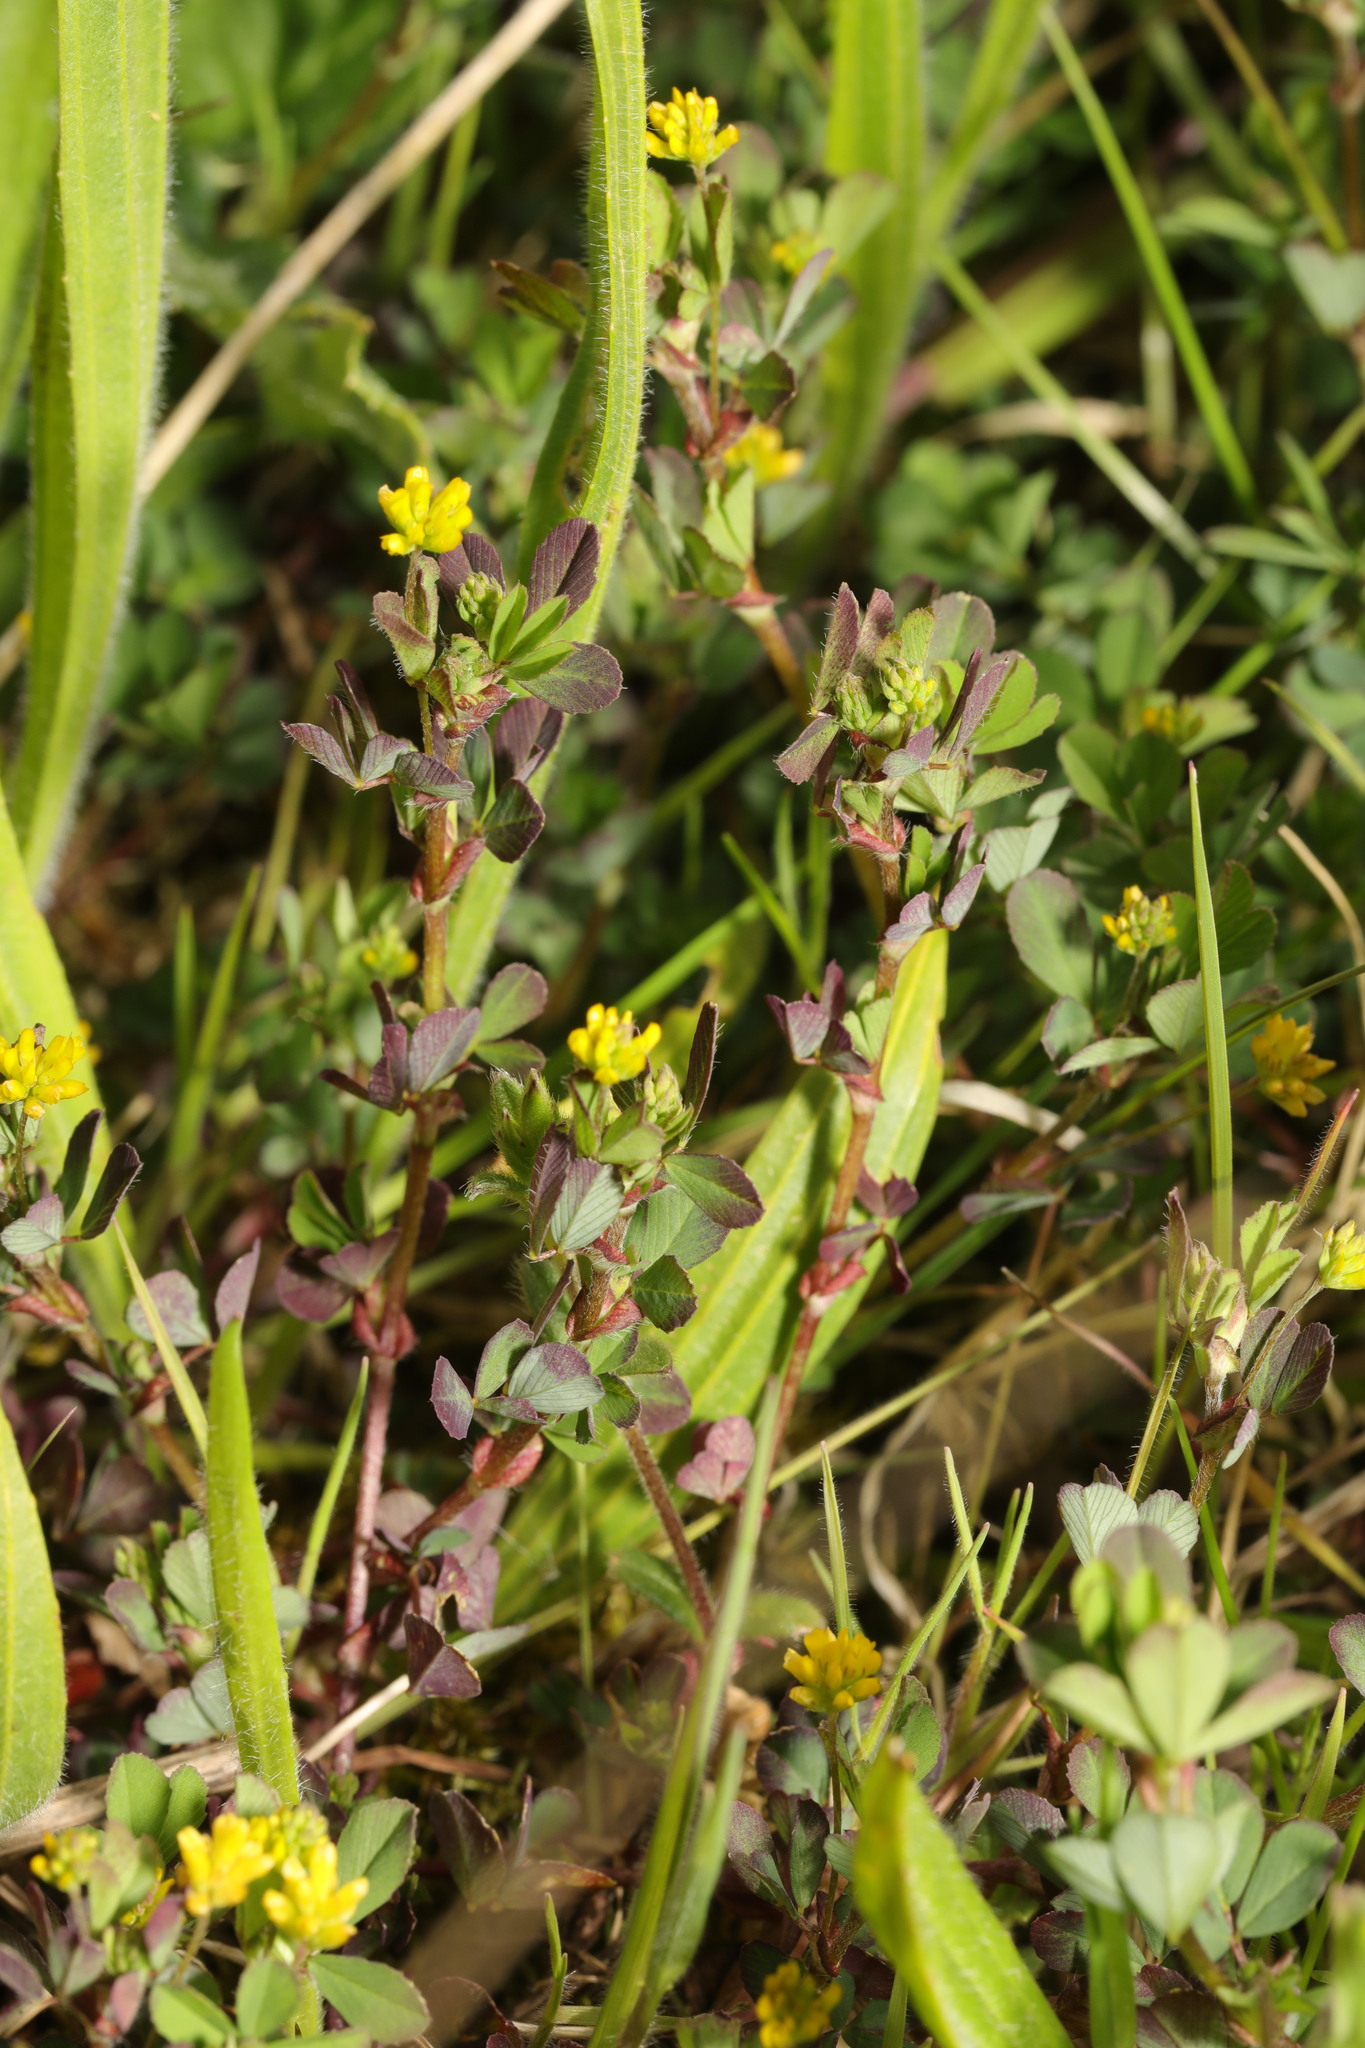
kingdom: Plantae
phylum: Tracheophyta
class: Magnoliopsida
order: Fabales
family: Fabaceae
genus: Trifolium
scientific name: Trifolium dubium
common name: Suckling clover
